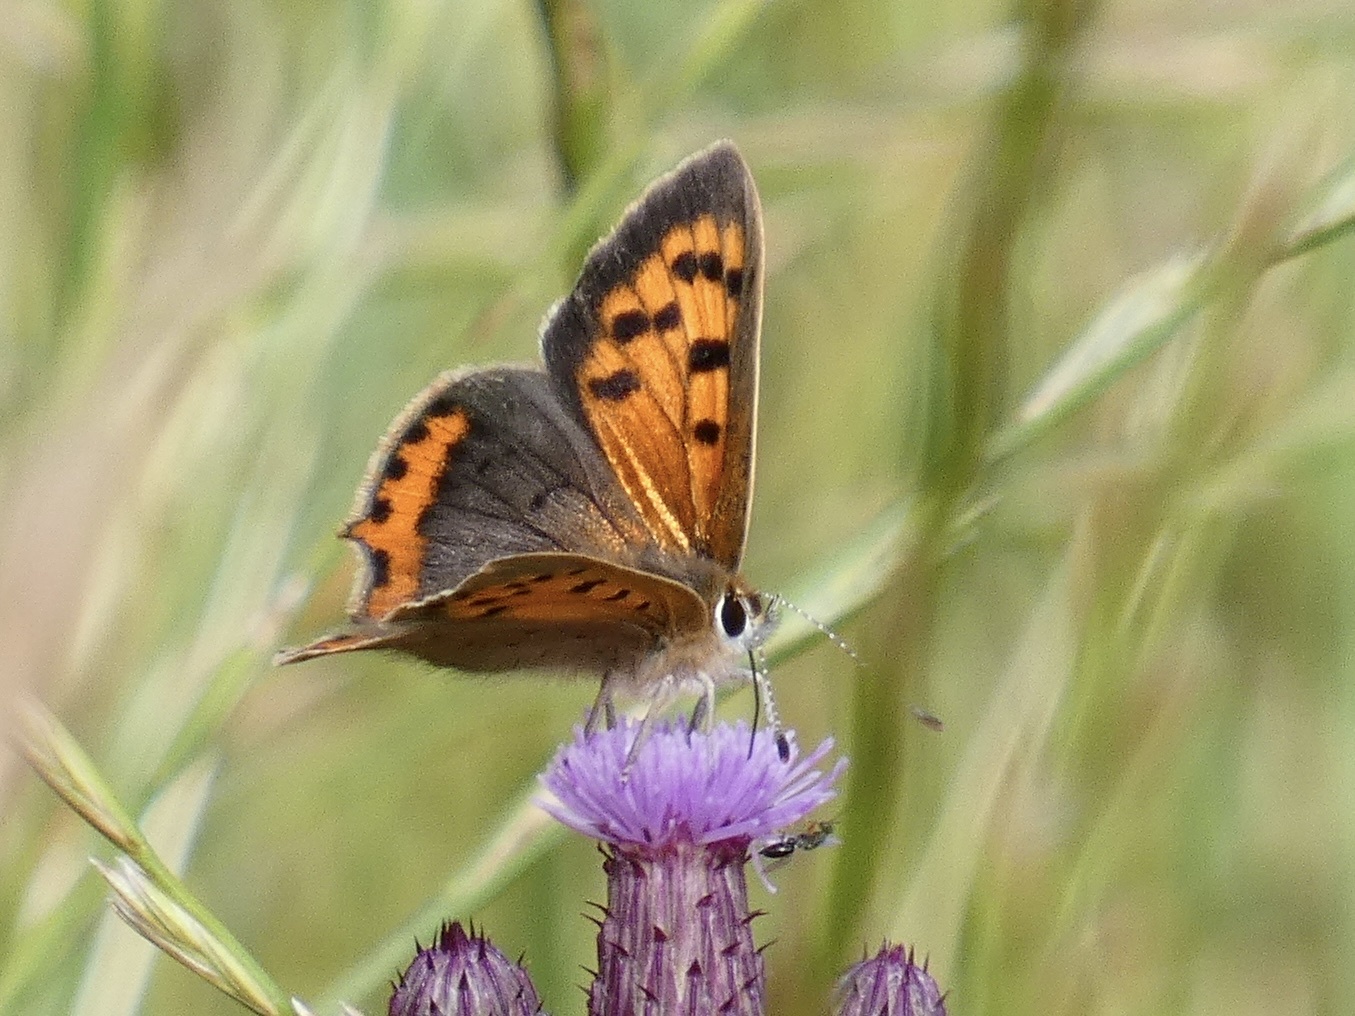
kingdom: Animalia
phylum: Arthropoda
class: Insecta
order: Lepidoptera
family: Lycaenidae
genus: Lycaena
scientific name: Lycaena phlaeas
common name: Small copper
